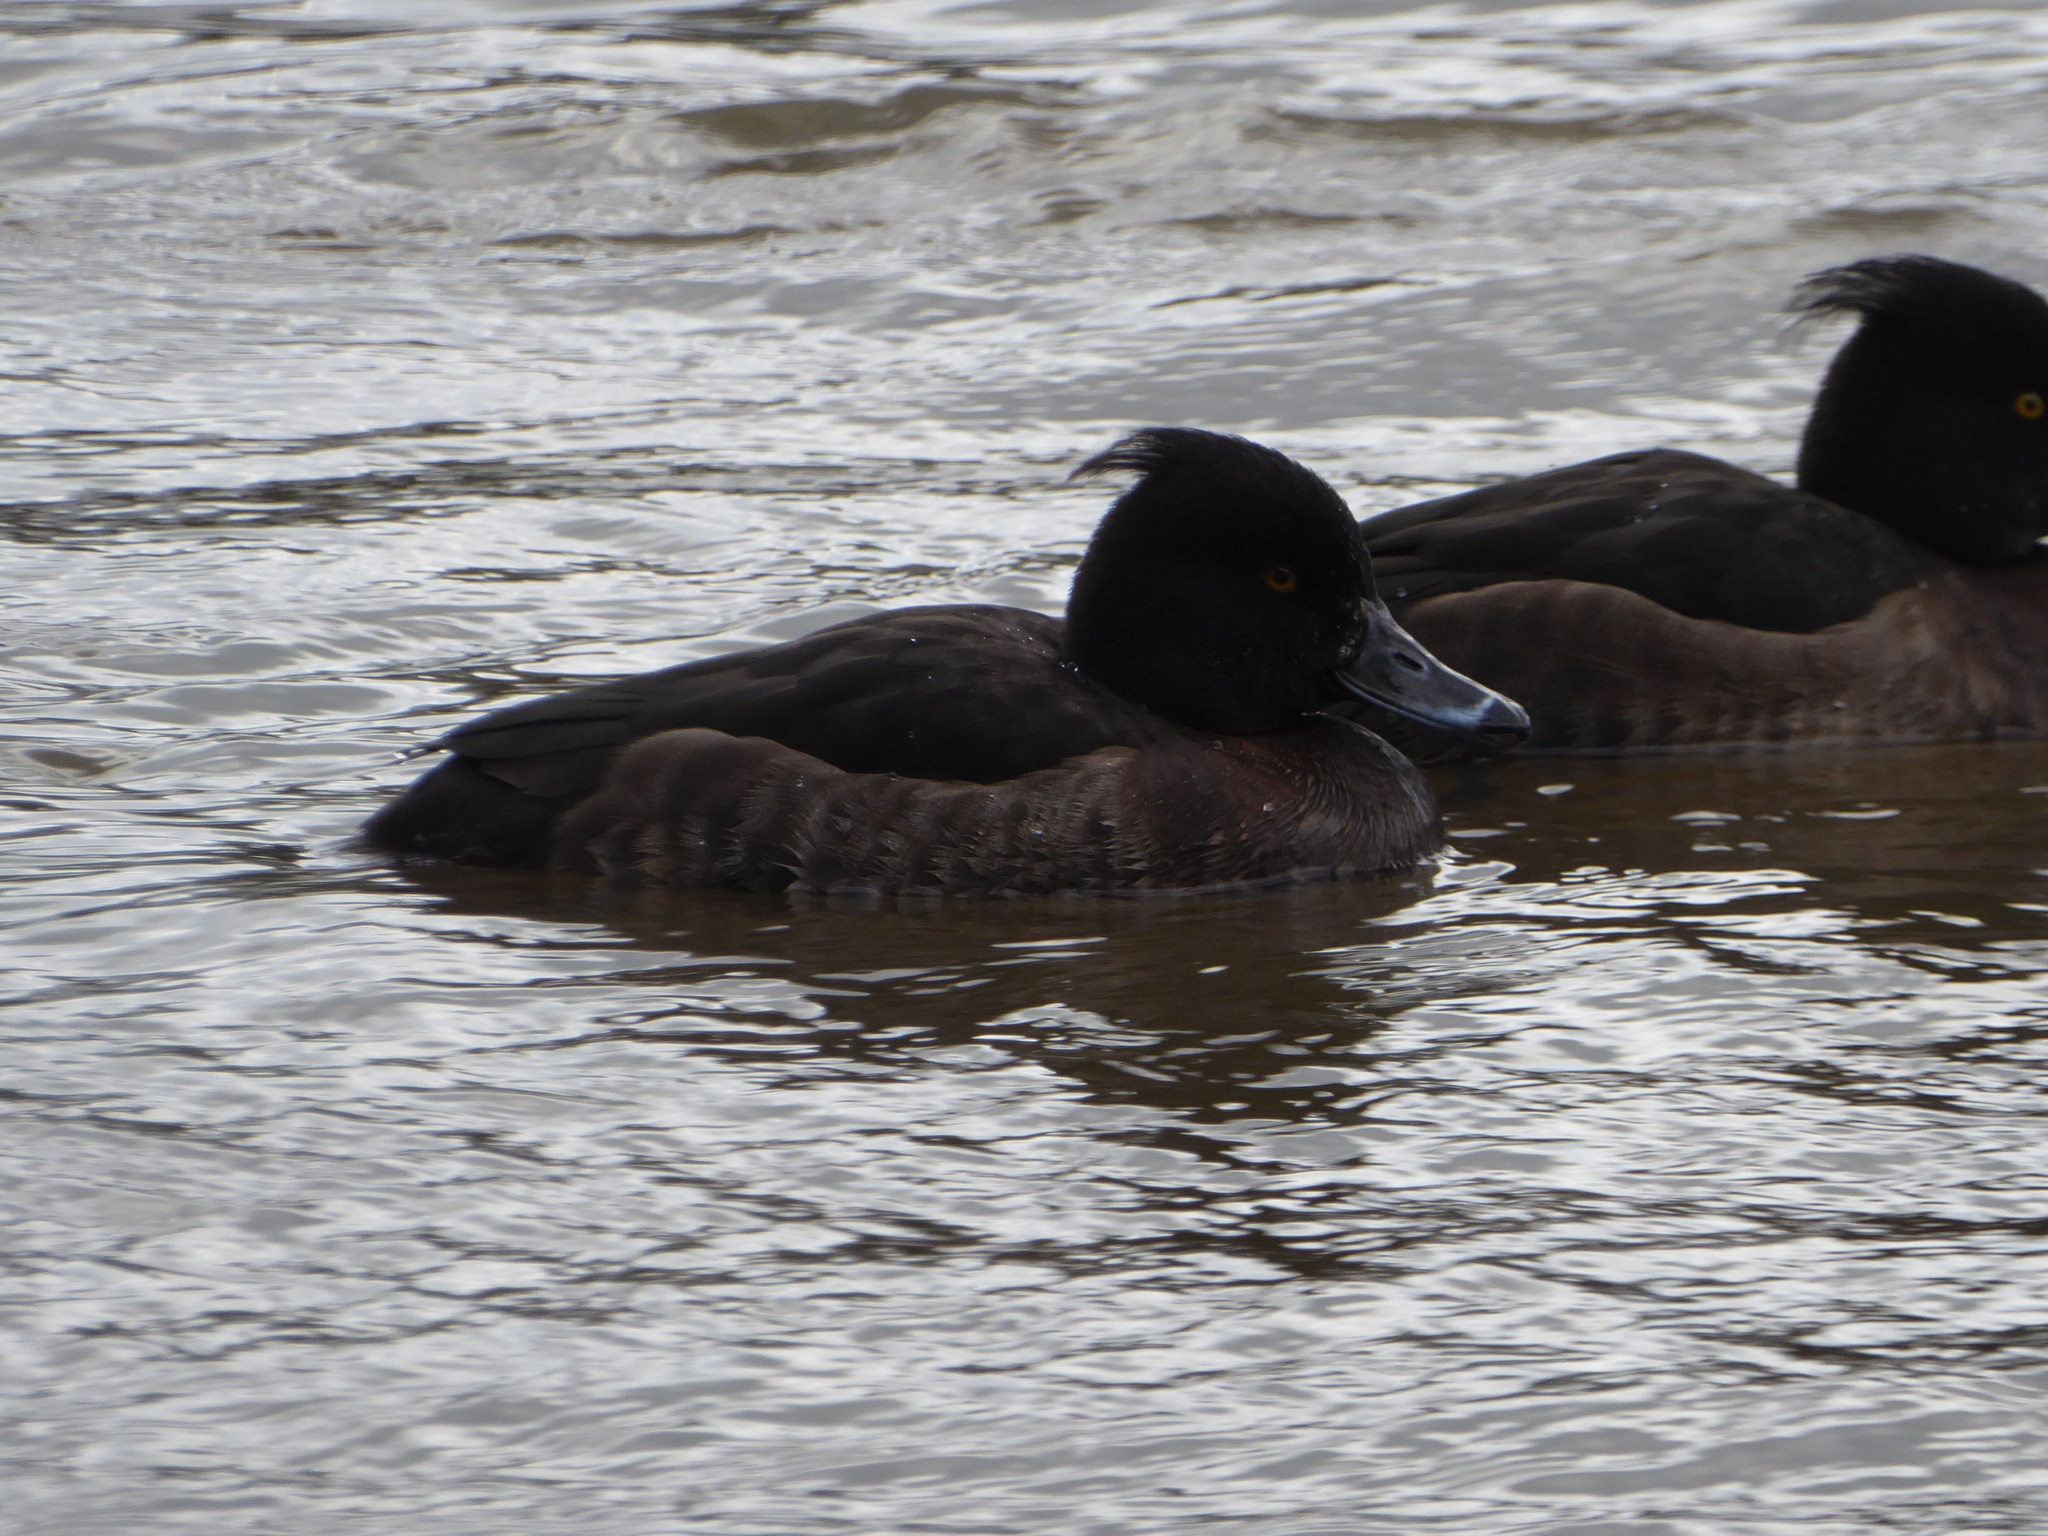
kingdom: Animalia
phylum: Chordata
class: Aves
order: Anseriformes
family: Anatidae
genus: Aythya
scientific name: Aythya fuligula
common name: Tufted duck
